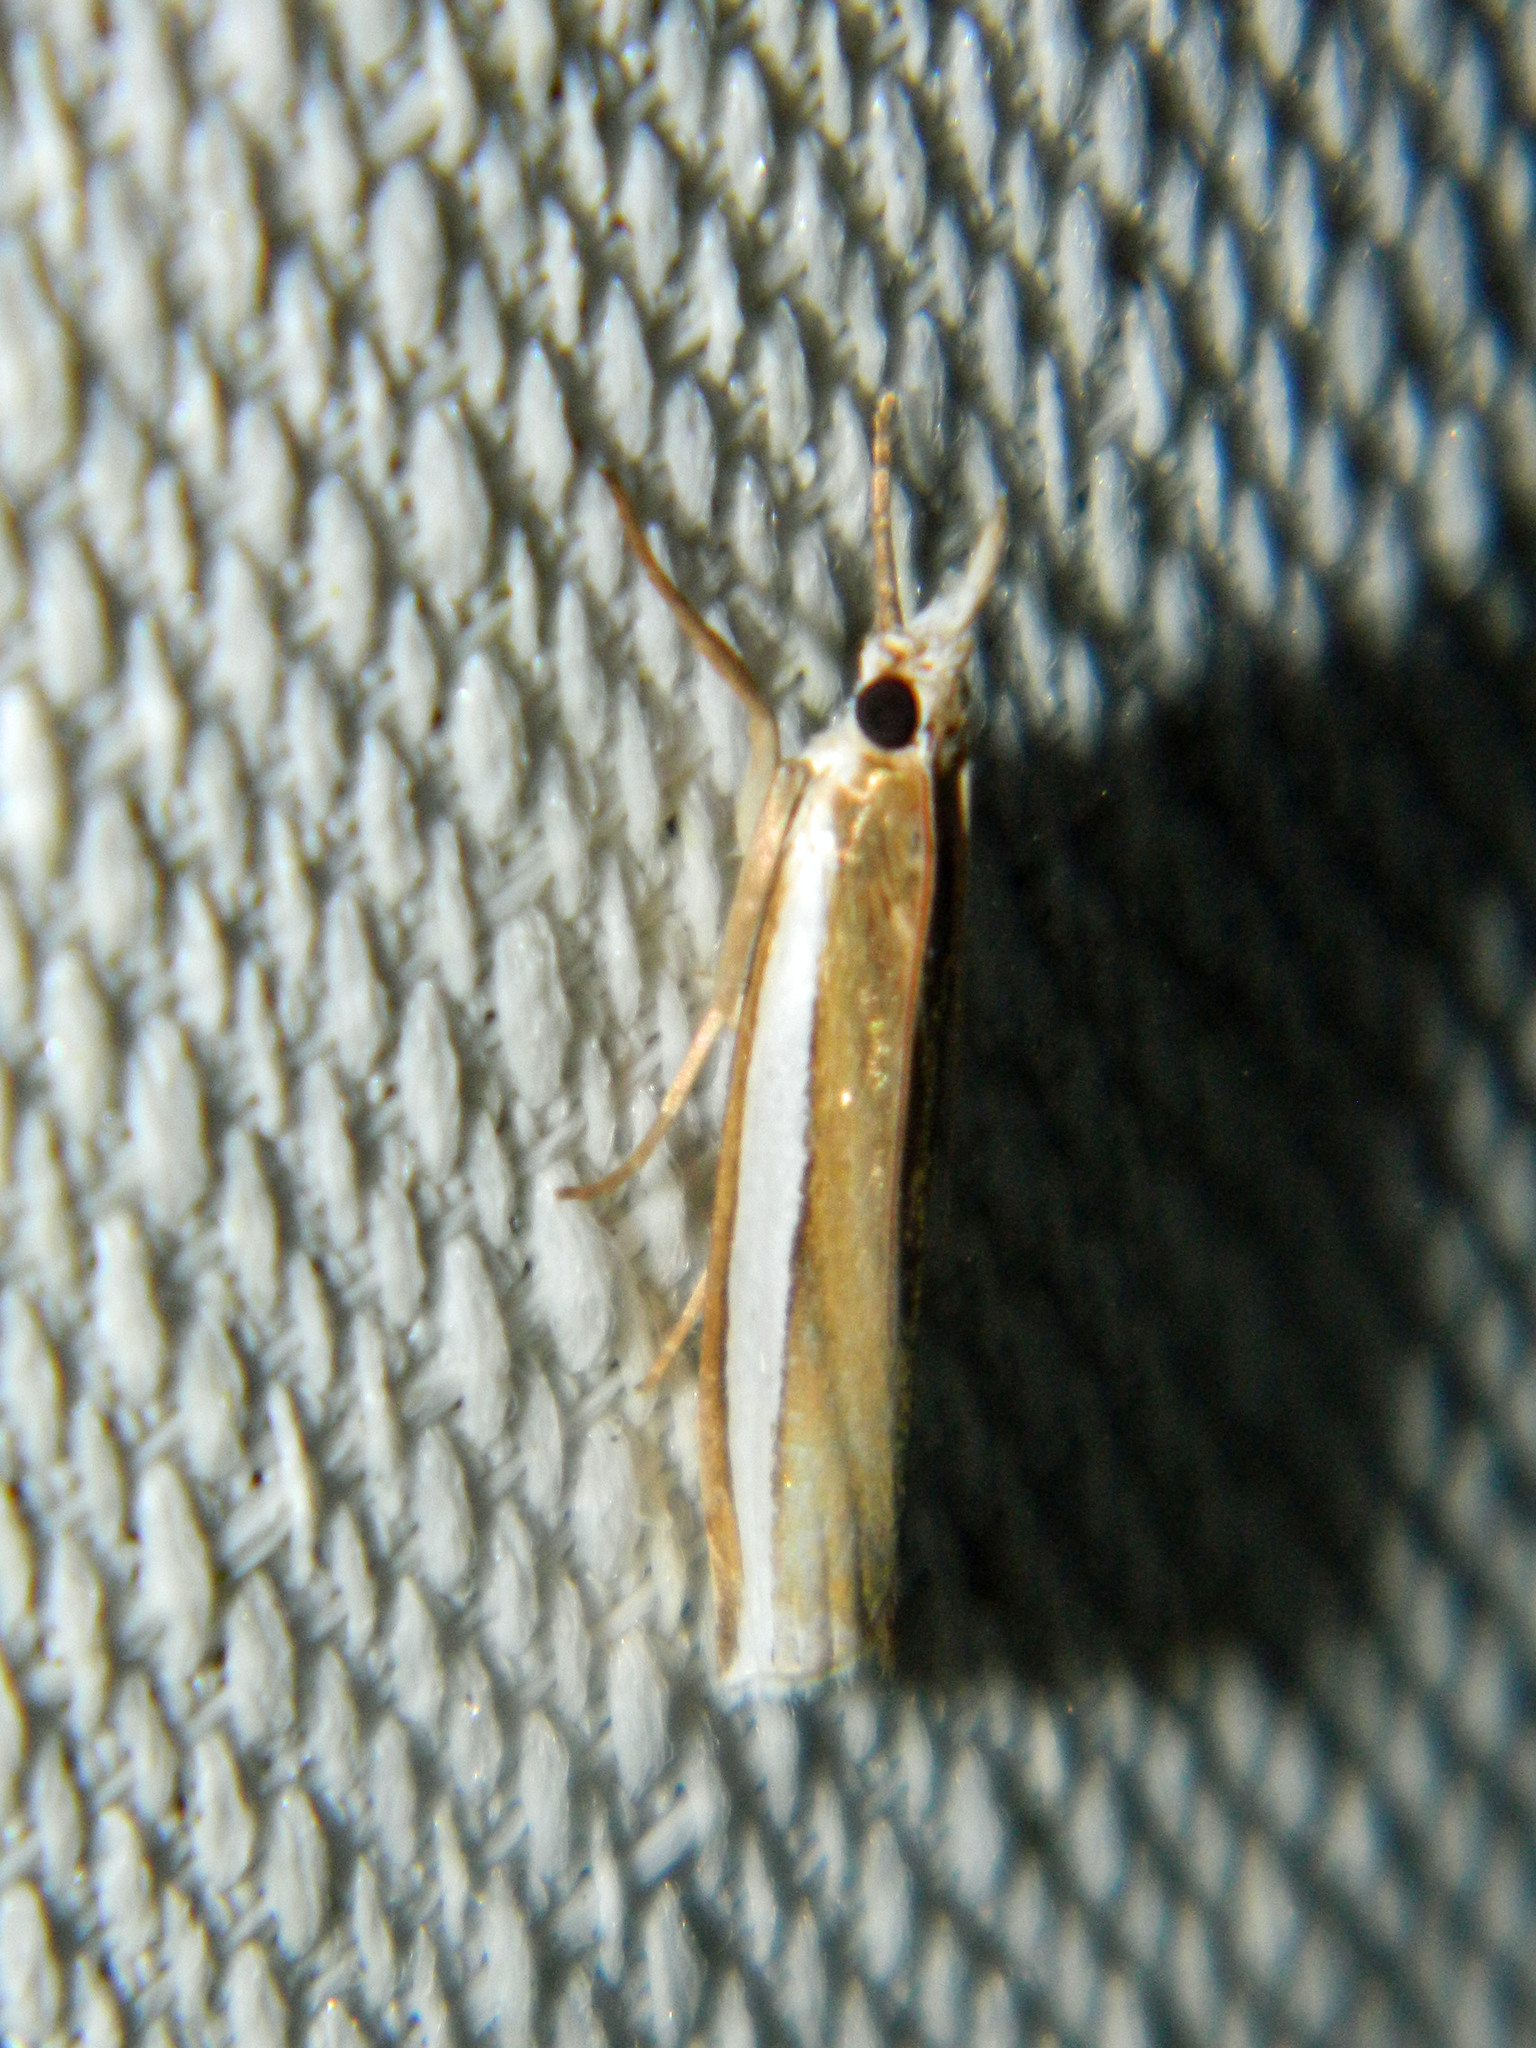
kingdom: Animalia
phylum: Arthropoda
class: Insecta
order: Lepidoptera
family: Crambidae
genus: Crambus
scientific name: Crambus unistriatellus
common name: Wide-stripe grass-veneer moth
